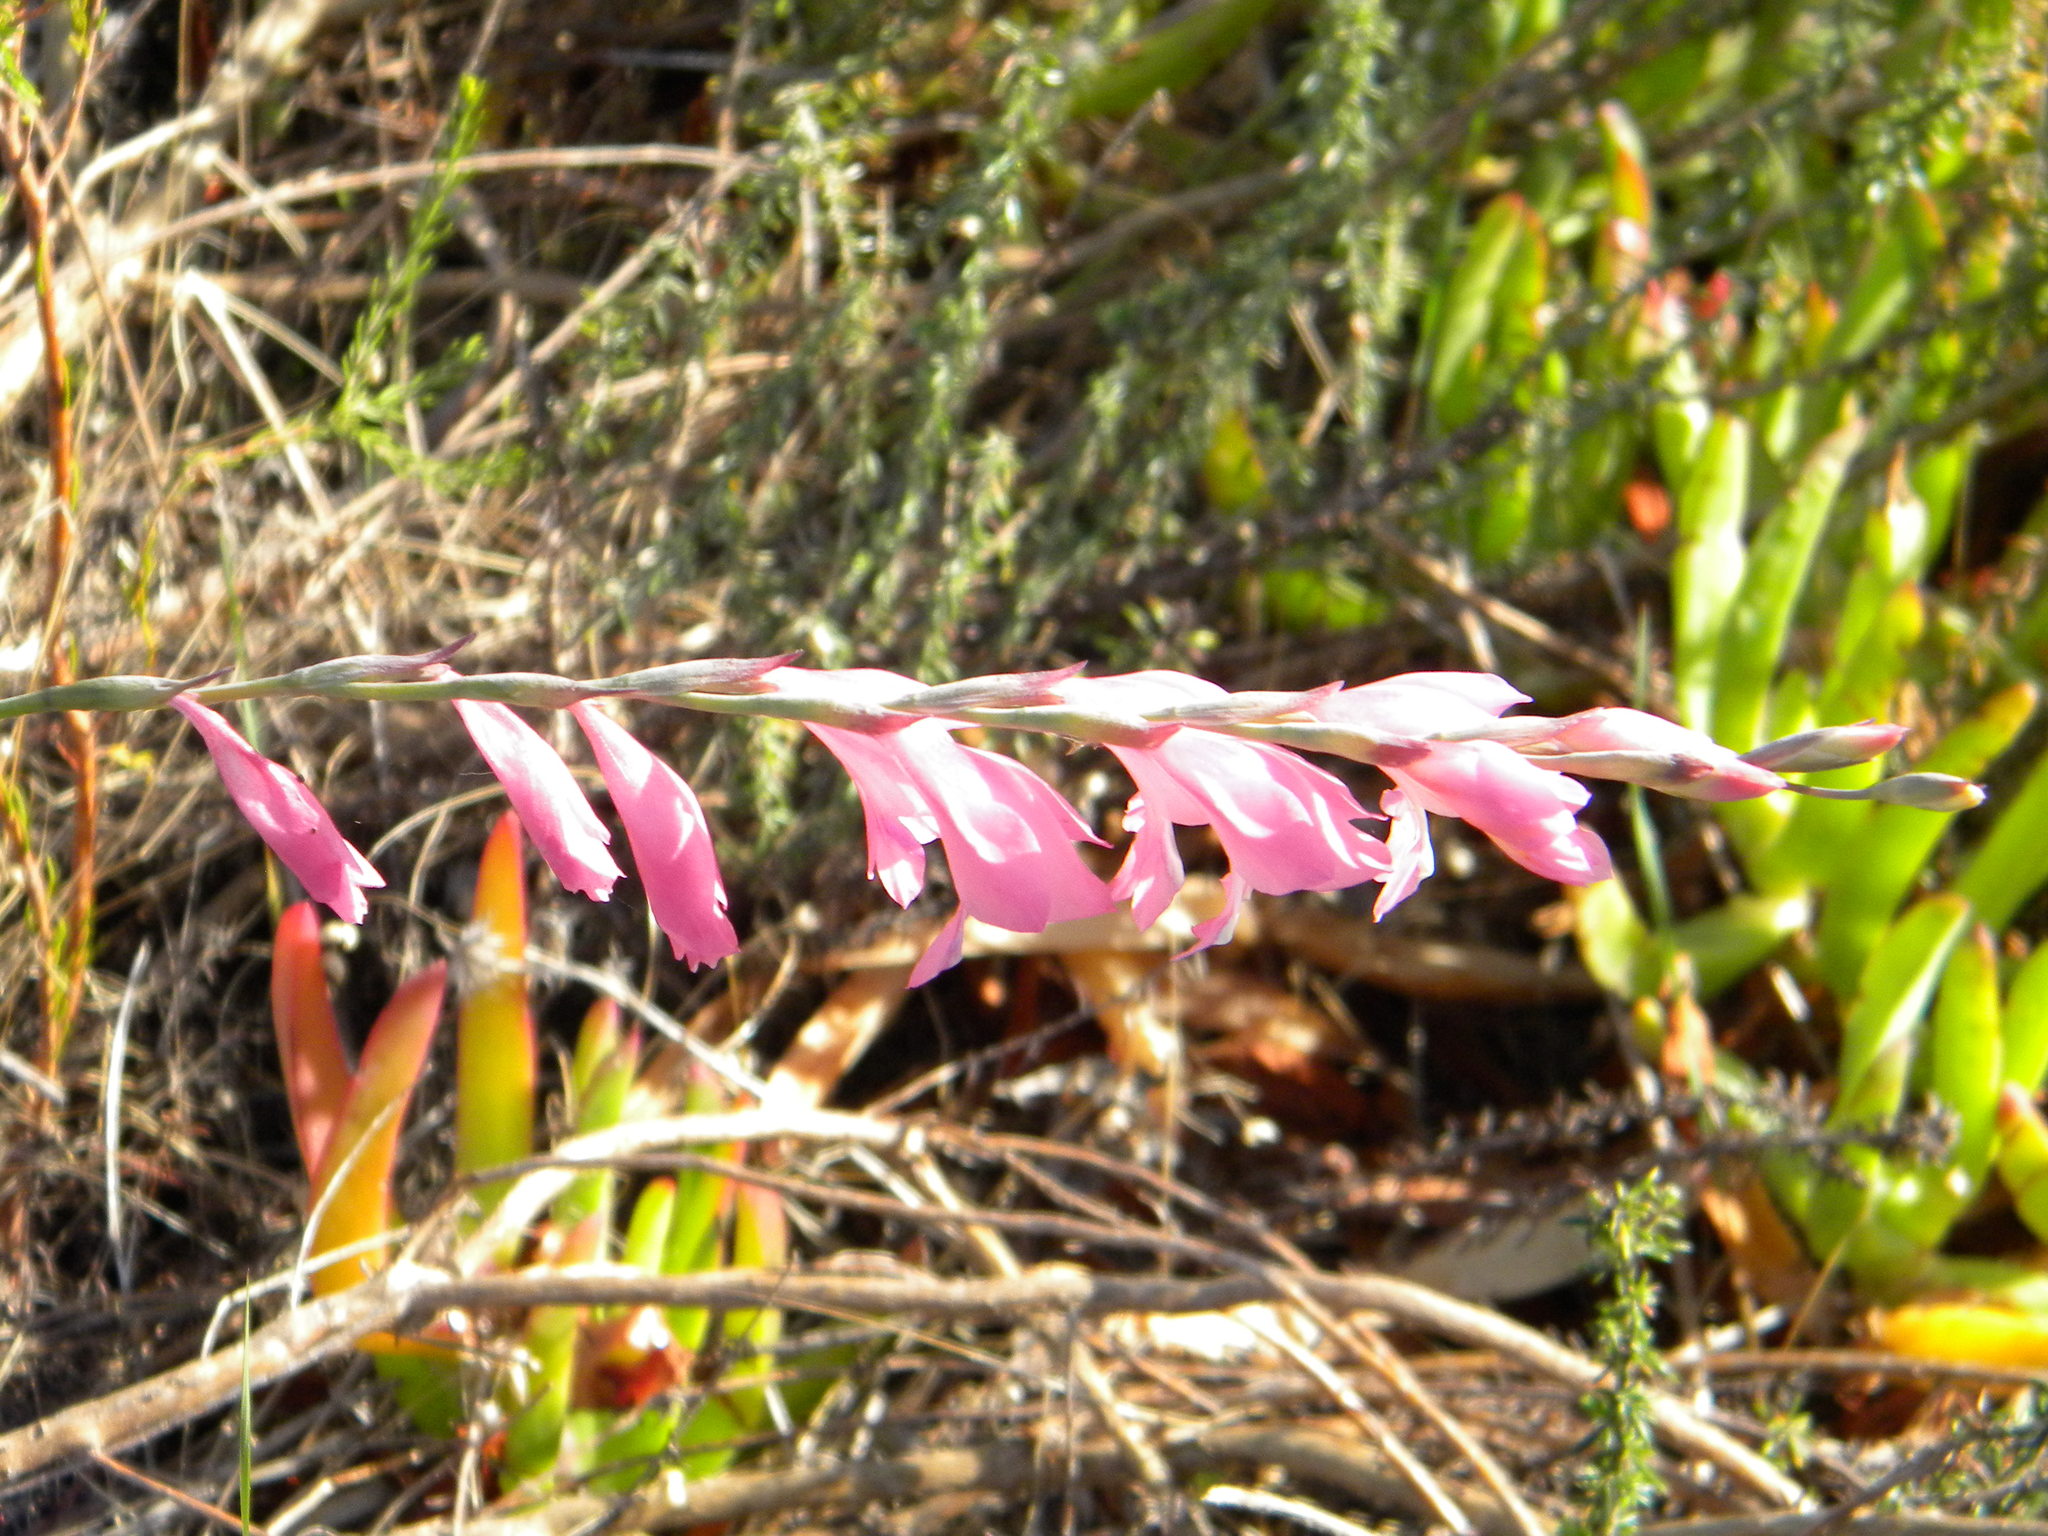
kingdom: Plantae
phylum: Tracheophyta
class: Liliopsida
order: Asparagales
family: Iridaceae
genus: Gladiolus
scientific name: Gladiolus brevifolius
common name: March pypie
